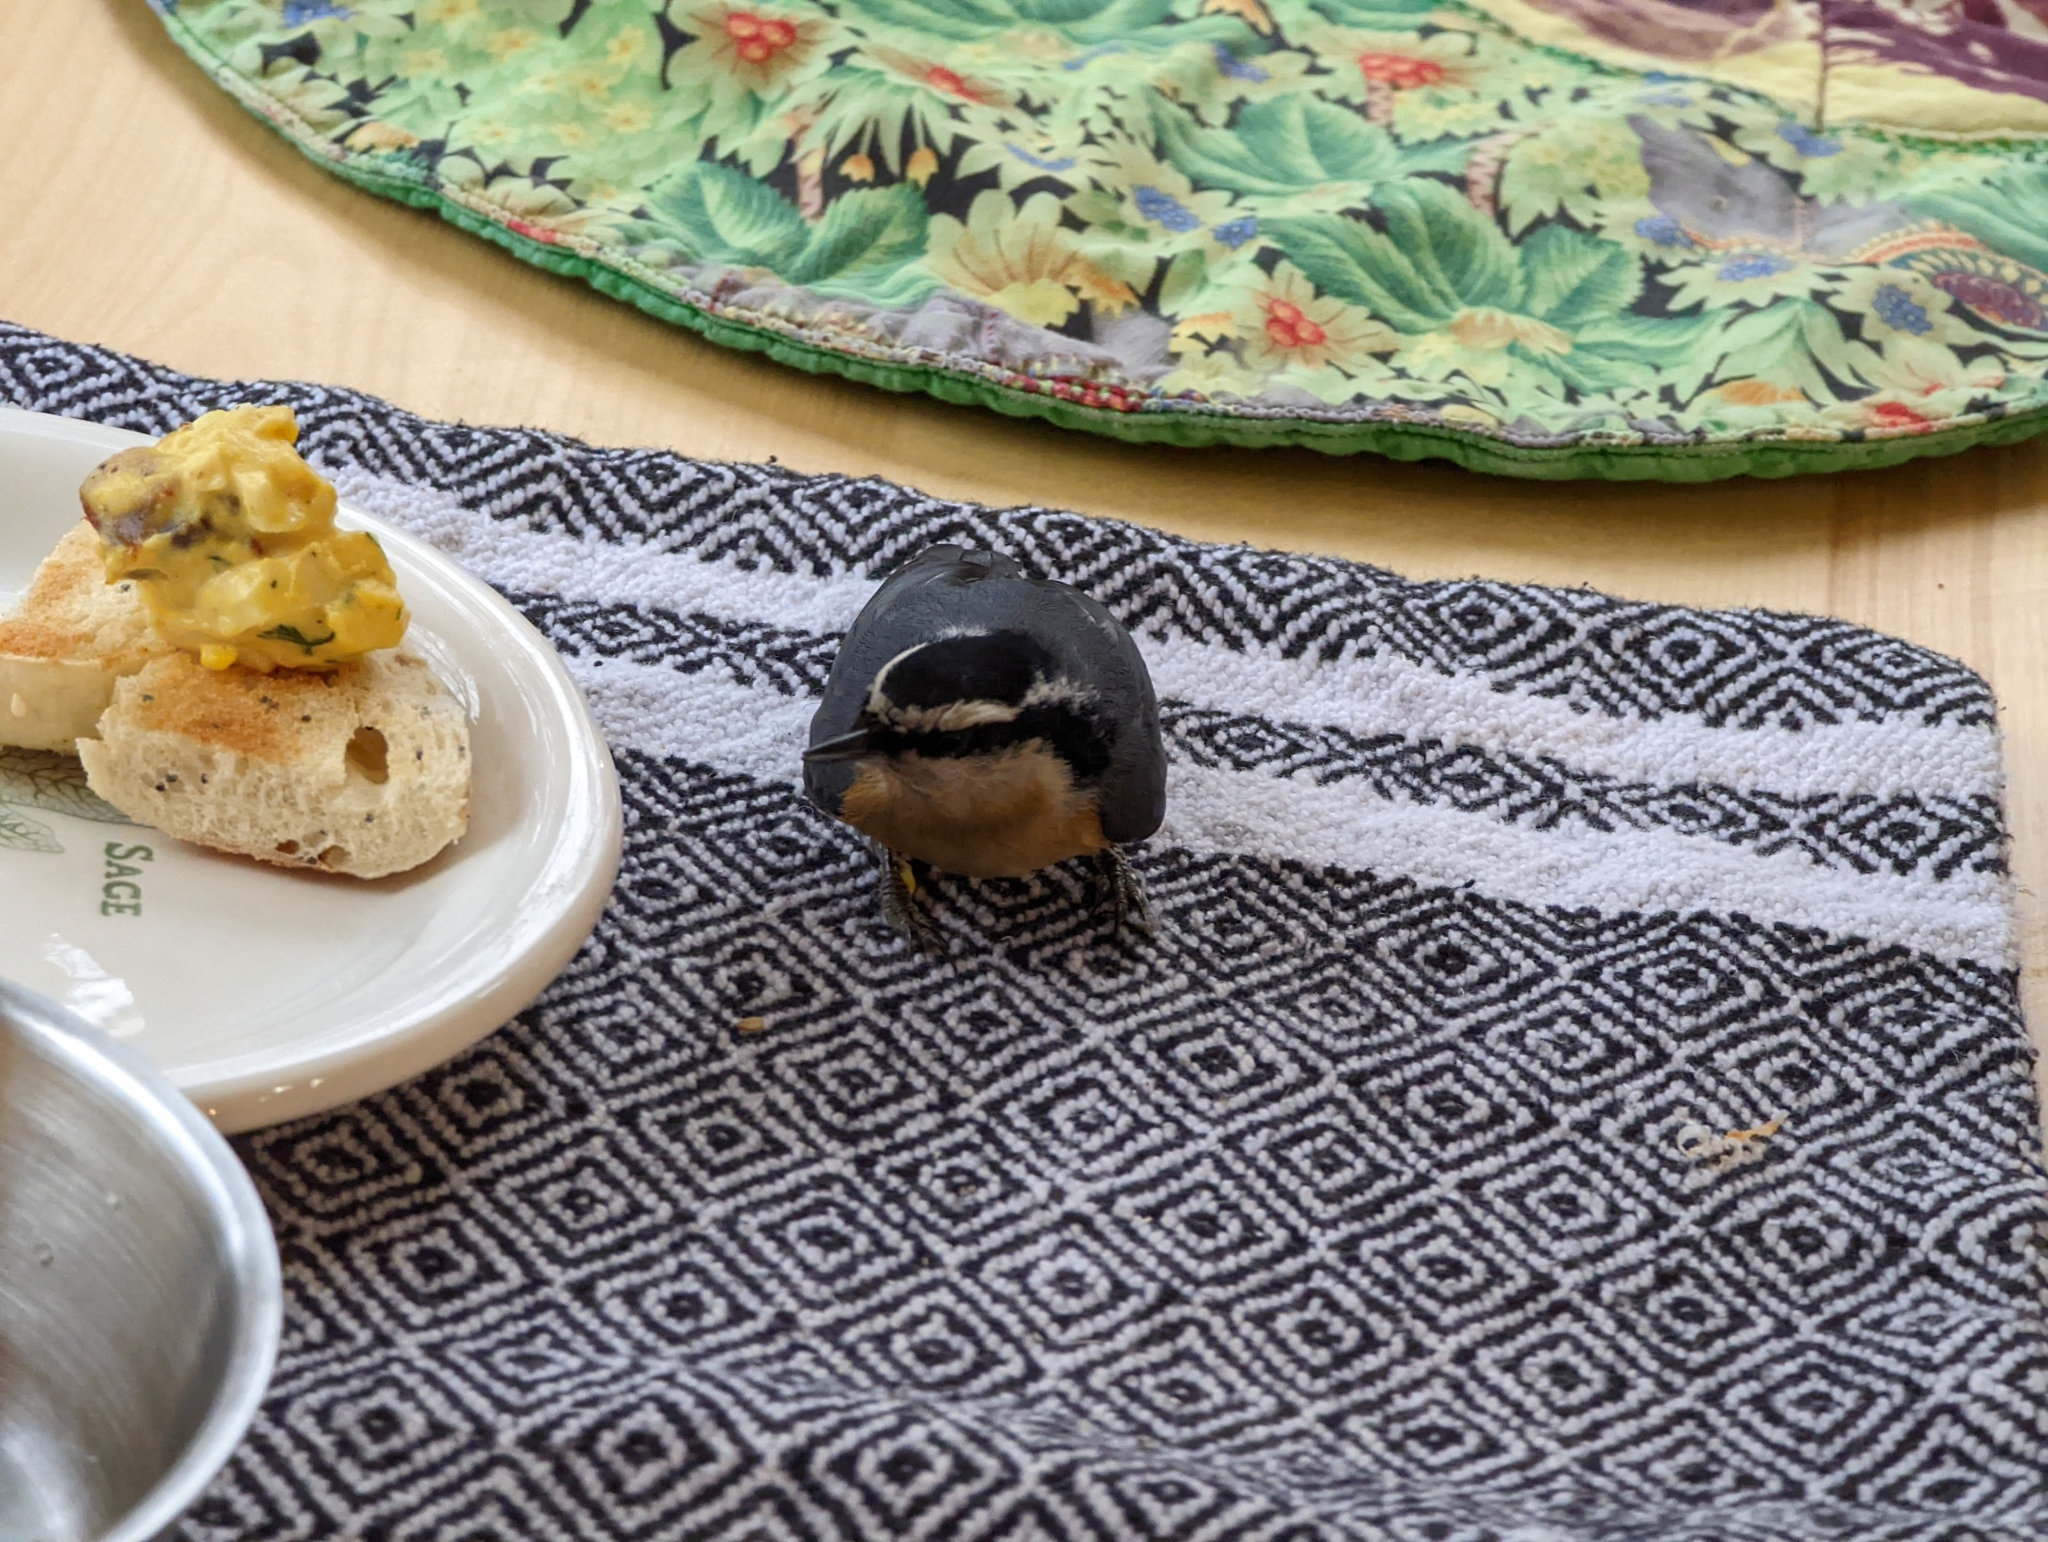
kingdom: Animalia
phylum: Chordata
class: Aves
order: Passeriformes
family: Sittidae
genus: Sitta
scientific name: Sitta canadensis
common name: Red-breasted nuthatch
